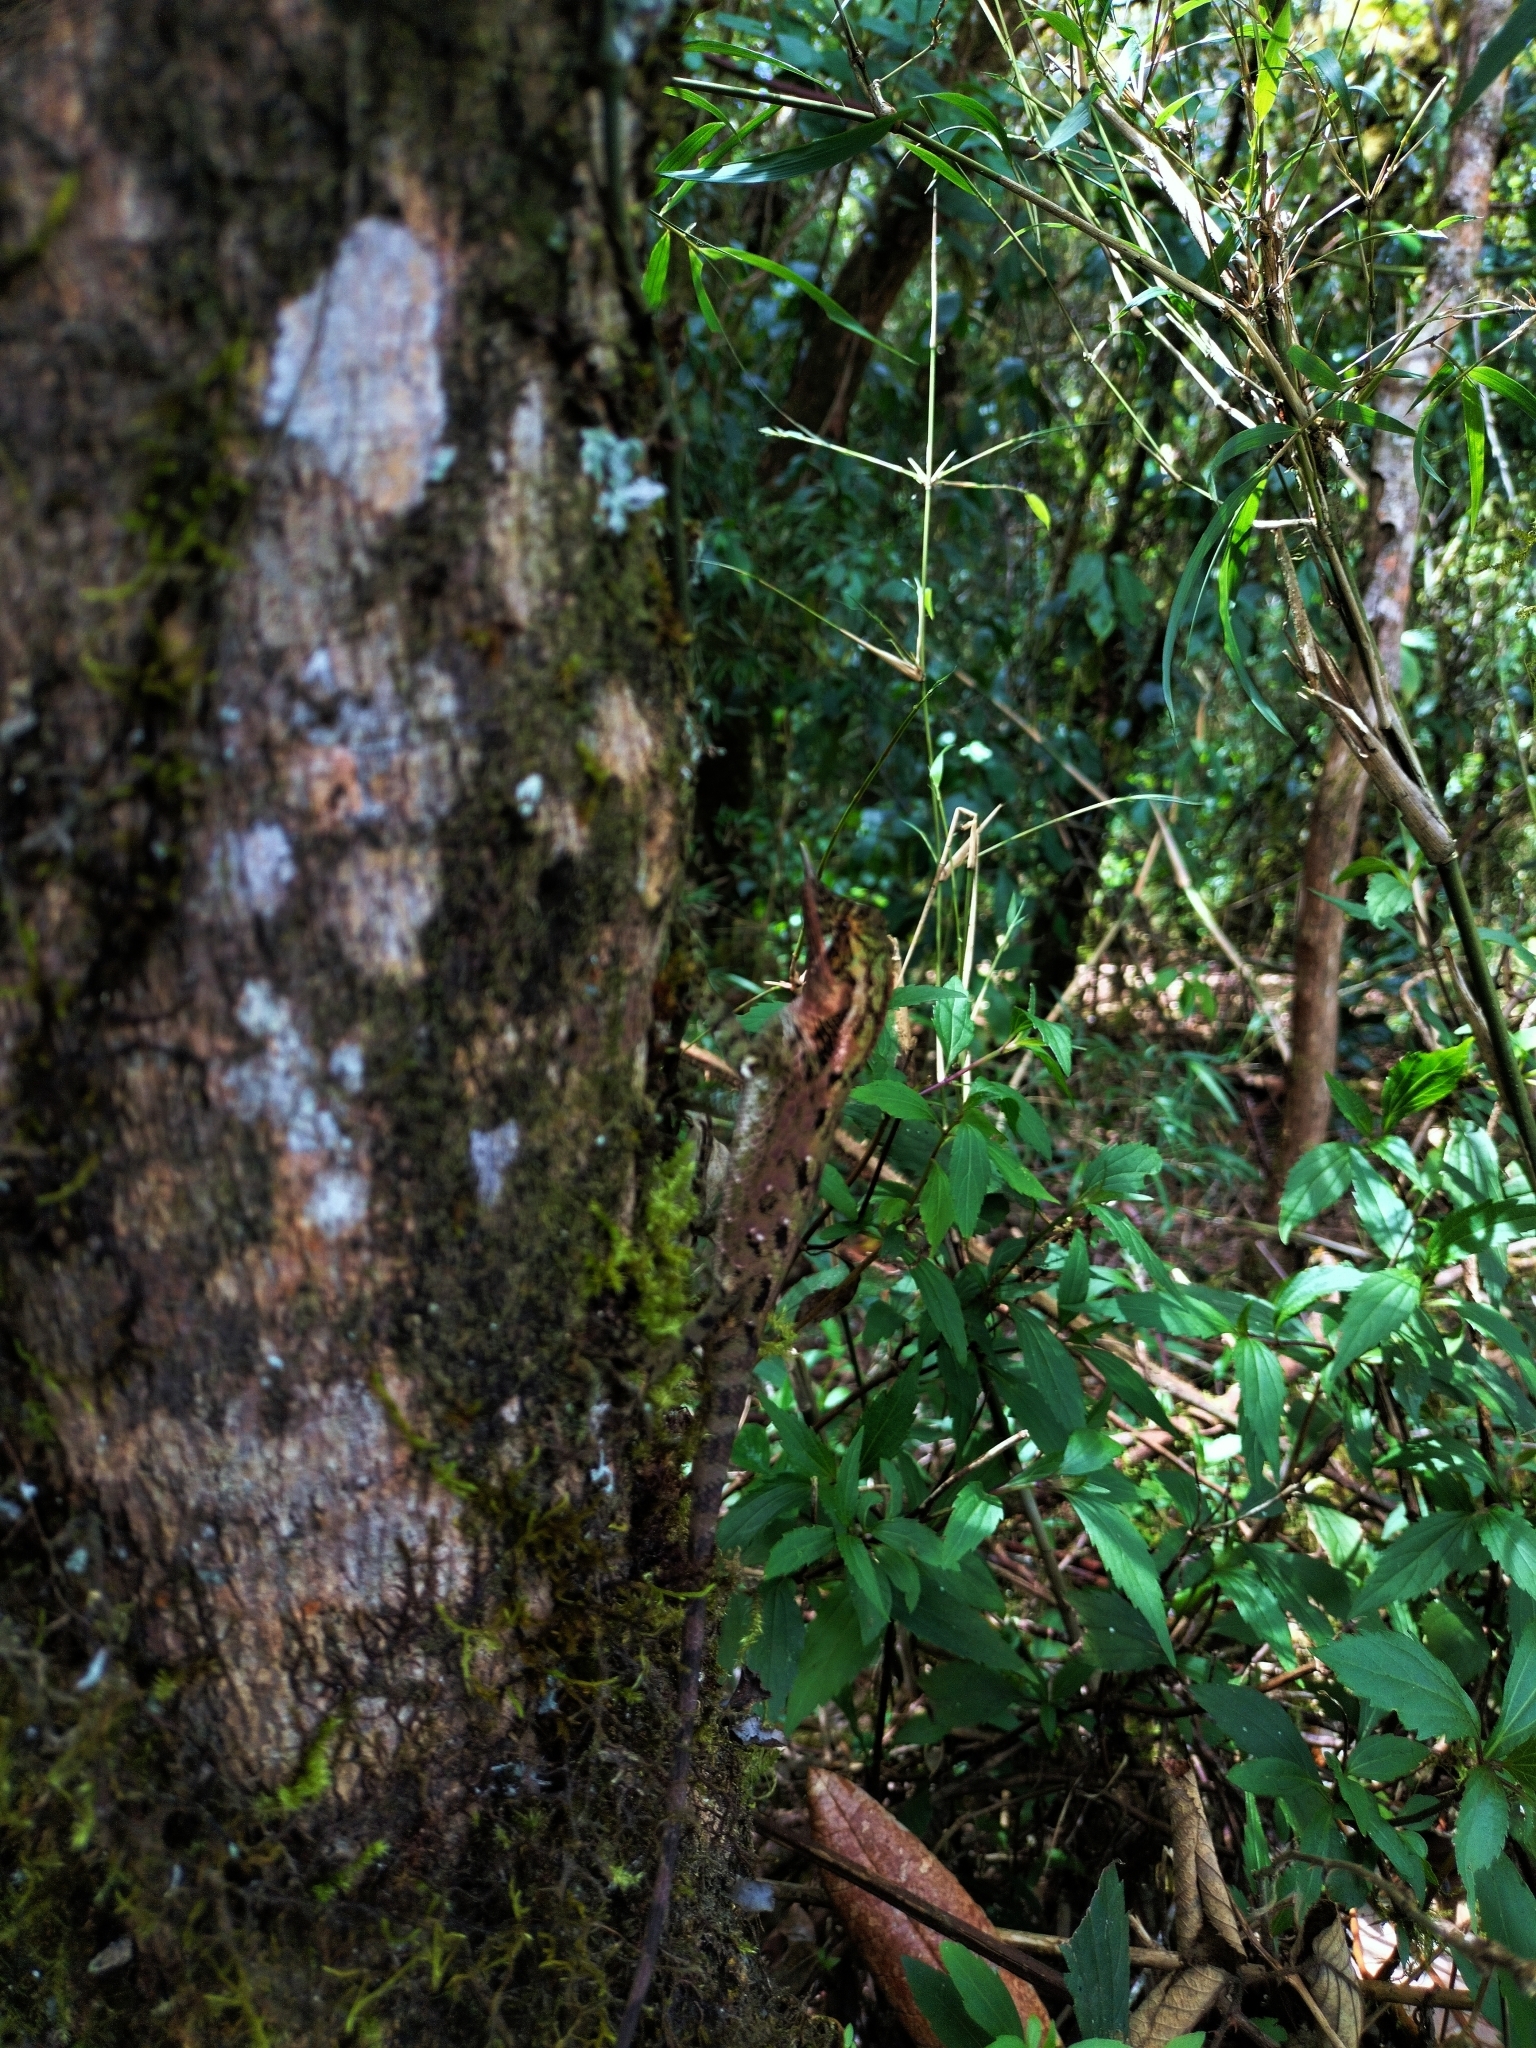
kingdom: Animalia
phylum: Chordata
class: Squamata
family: Agamidae
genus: Ceratophora
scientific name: Ceratophora stoddartii
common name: Mountain horned agama
